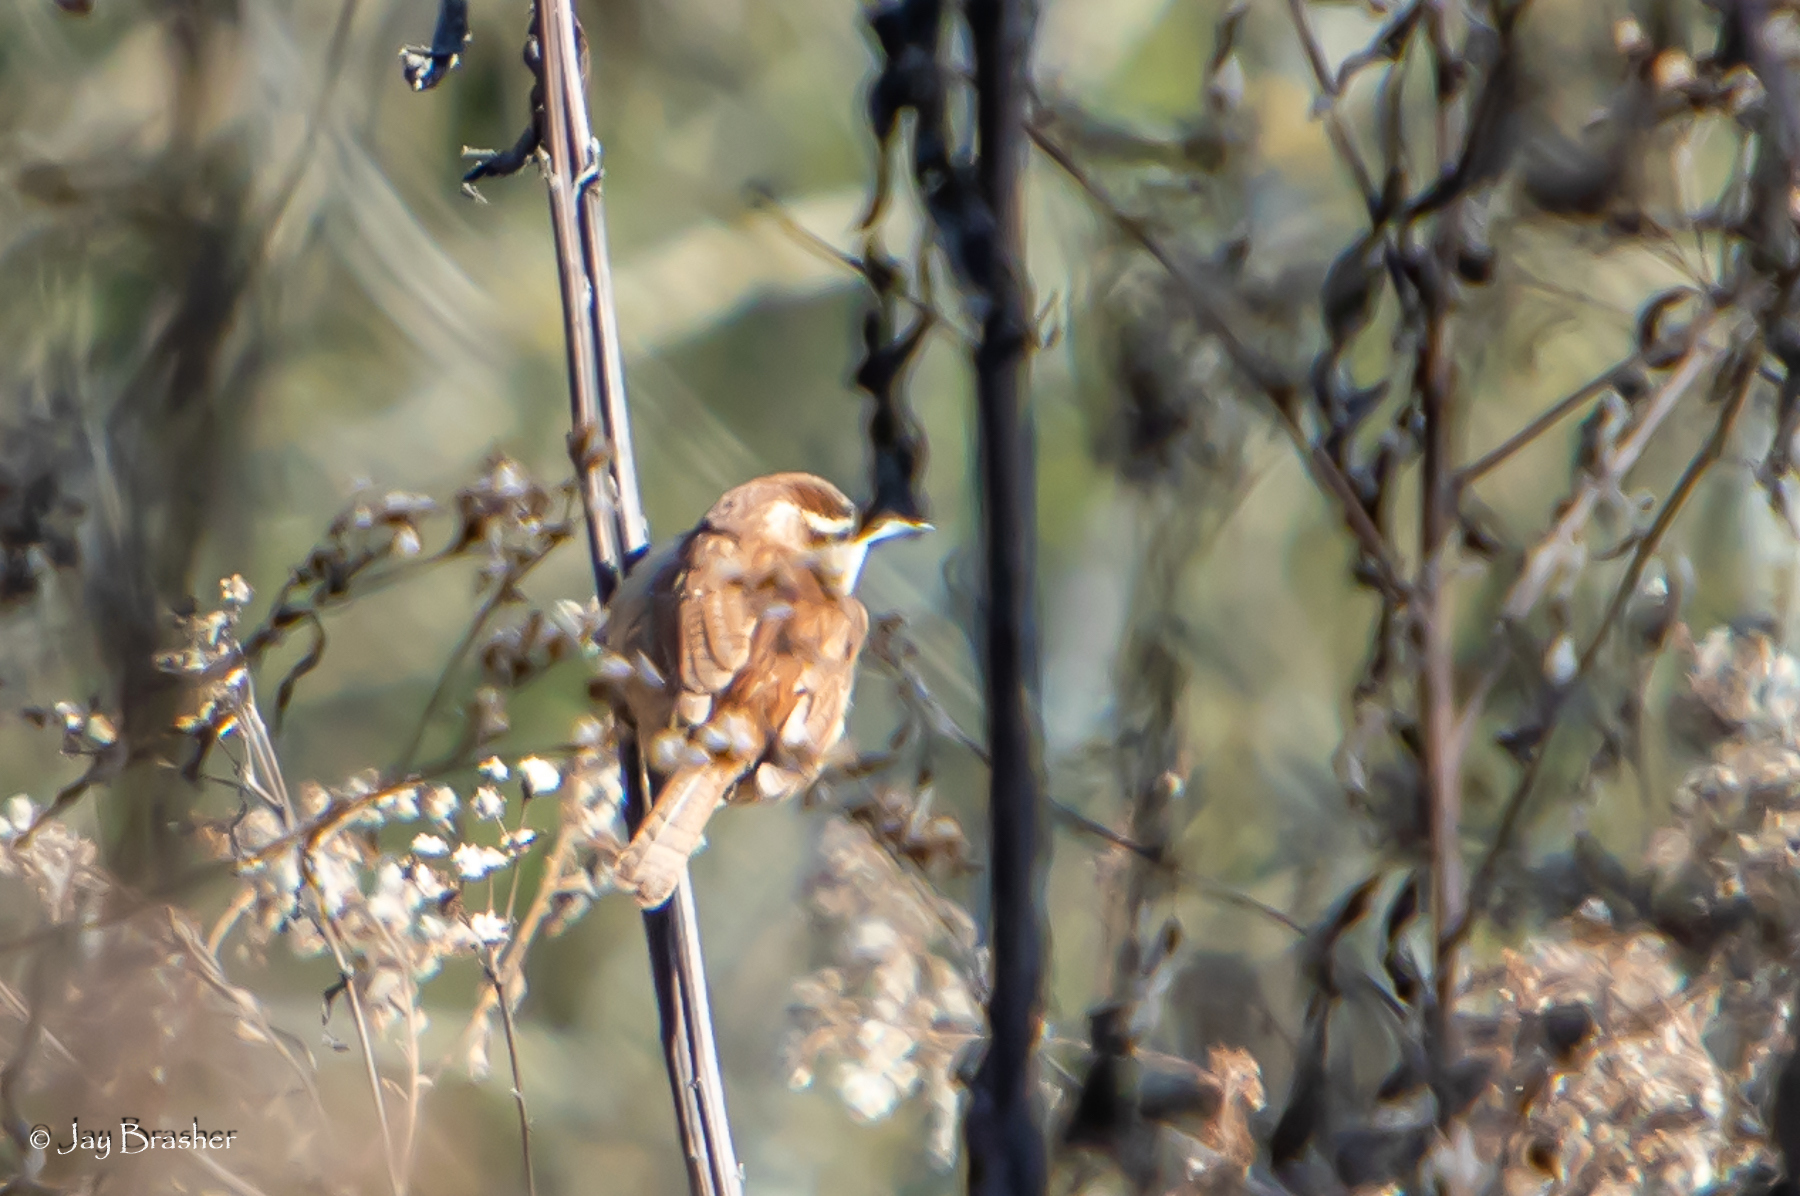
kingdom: Animalia
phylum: Chordata
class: Aves
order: Passeriformes
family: Troglodytidae
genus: Thryothorus
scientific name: Thryothorus ludovicianus
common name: Carolina wren
